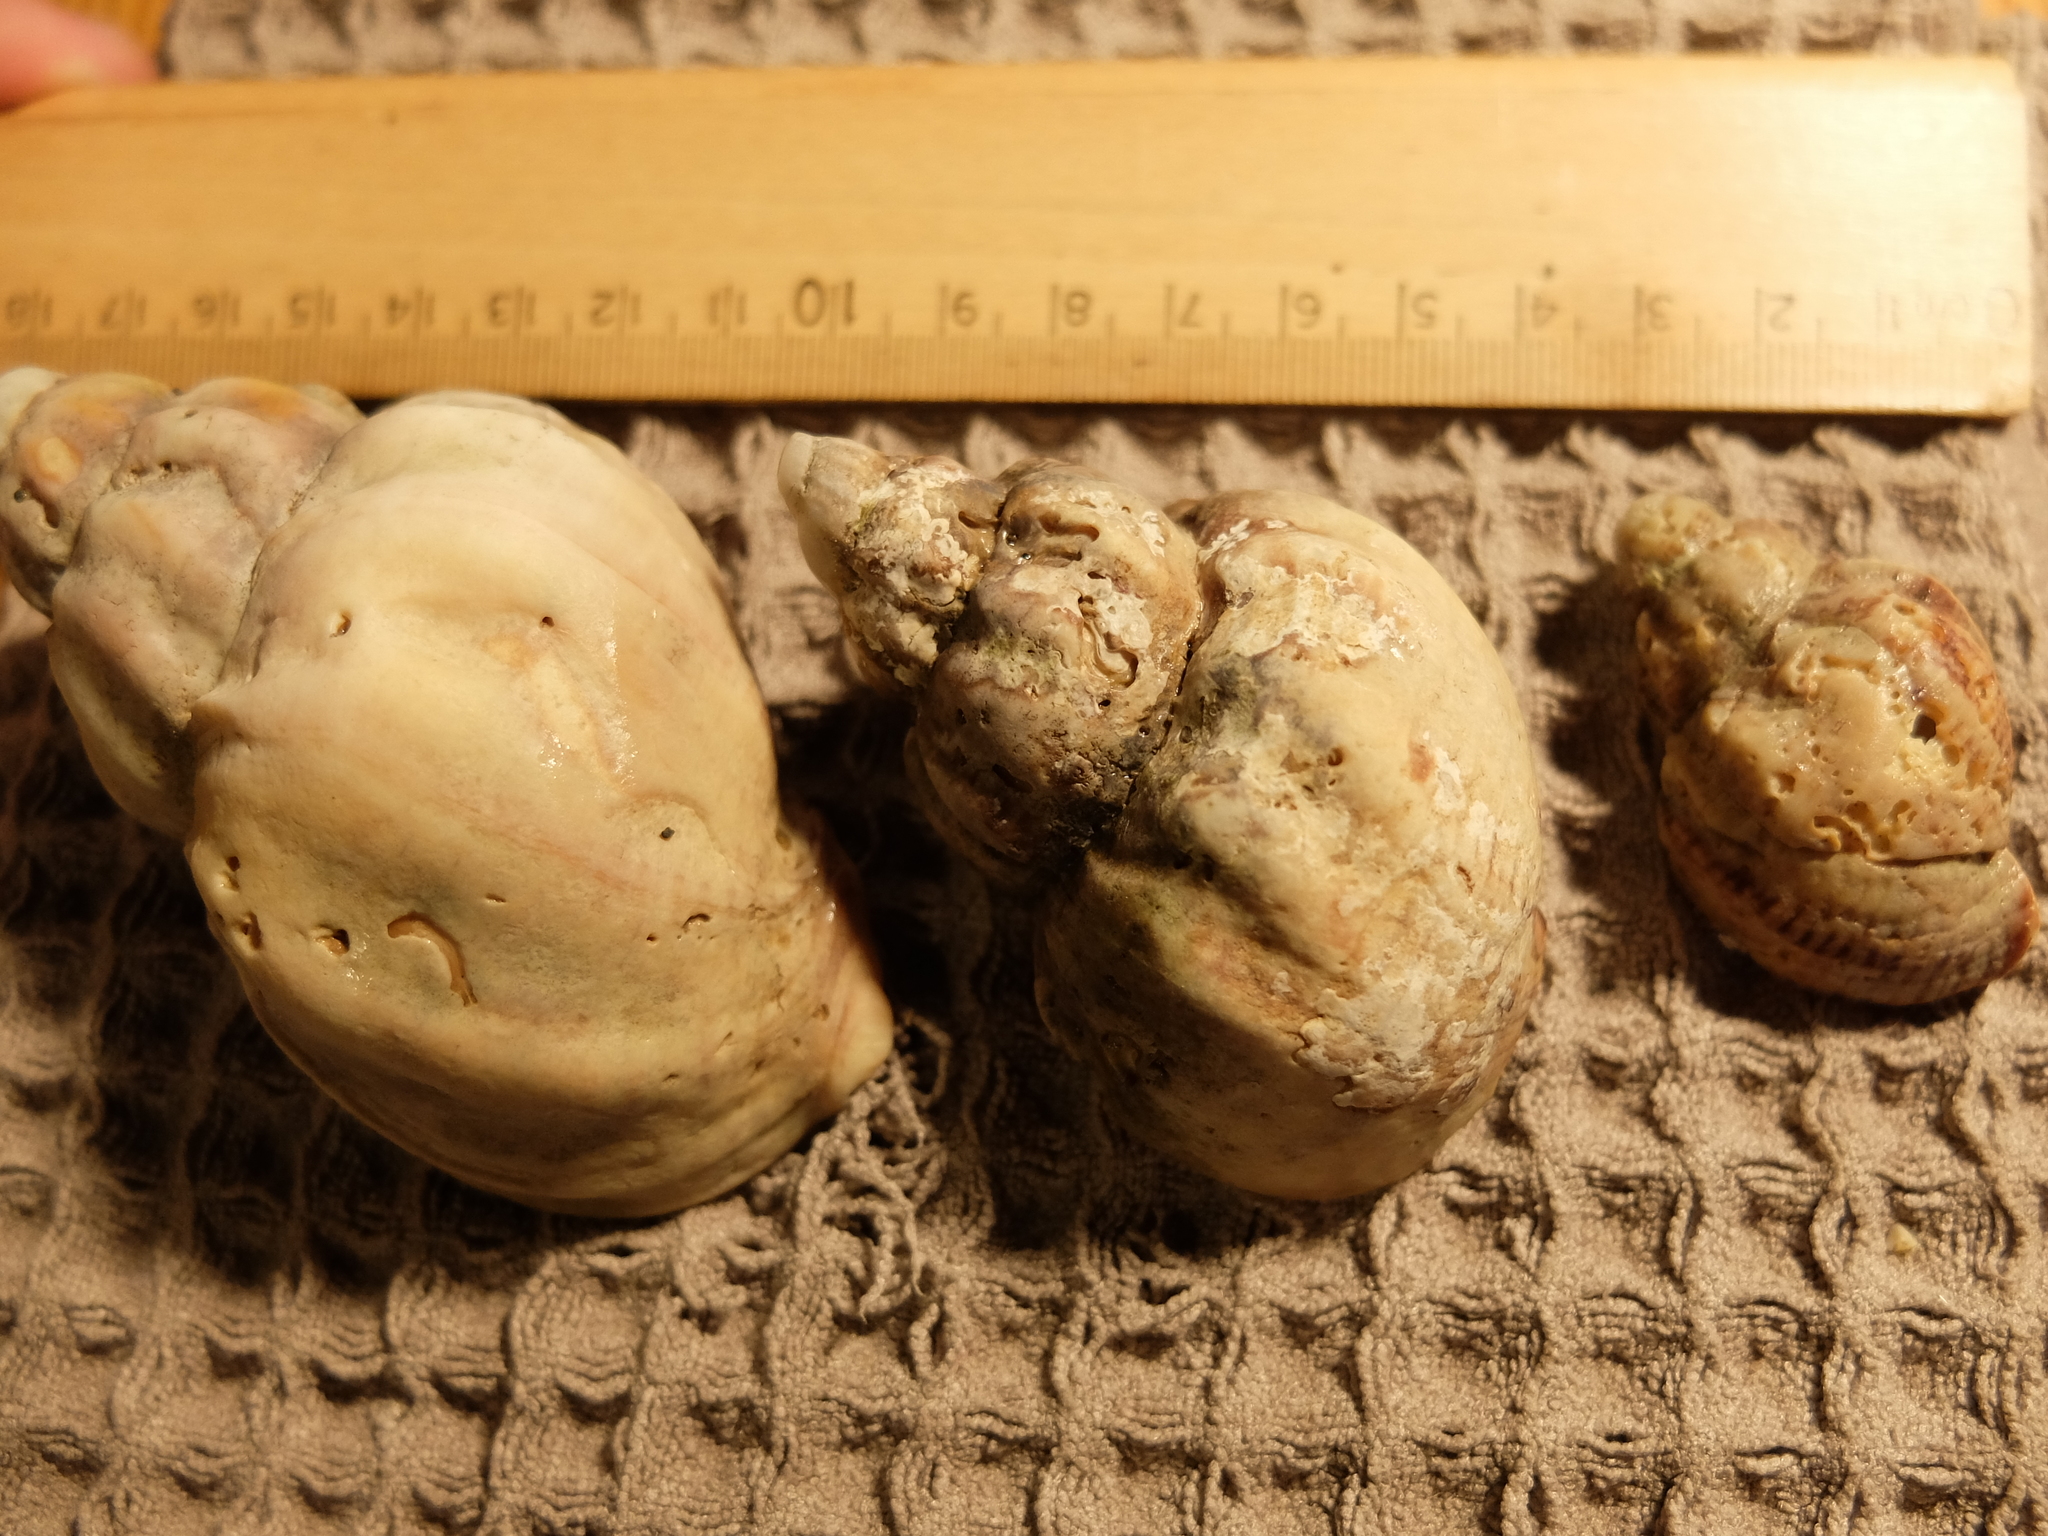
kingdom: Animalia
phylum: Mollusca
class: Gastropoda
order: Neogastropoda
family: Buccinidae
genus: Buccinum
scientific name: Buccinum undatum
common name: Common whelk
